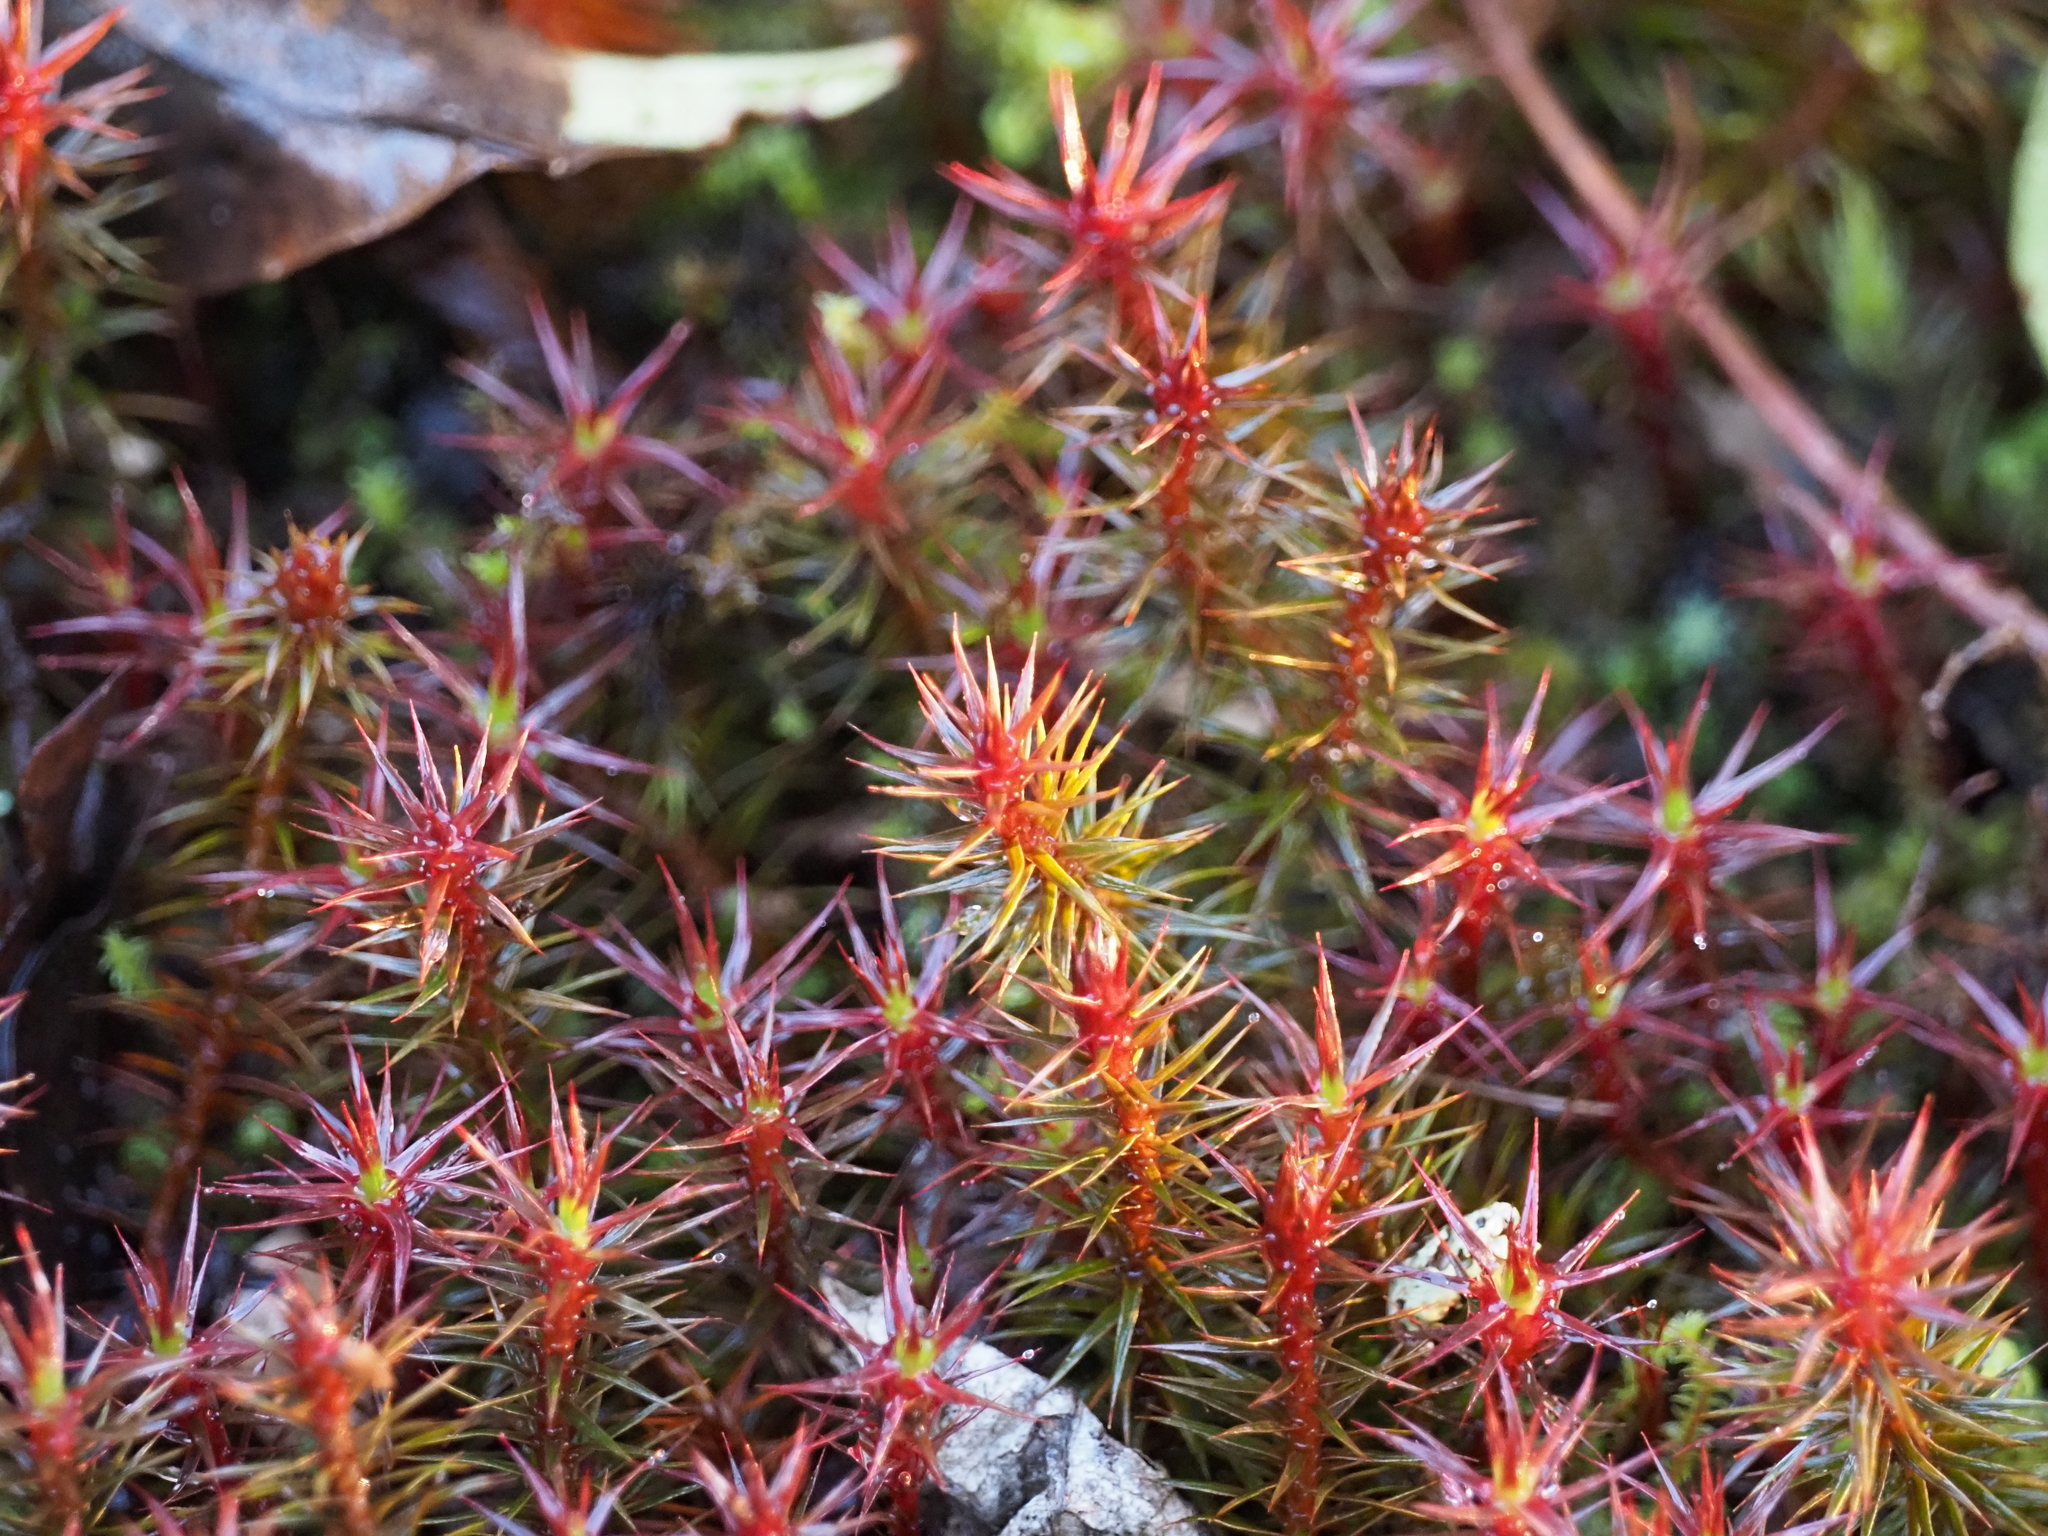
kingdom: Plantae
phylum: Bryophyta
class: Polytrichopsida
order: Polytrichales
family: Polytrichaceae
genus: Polytrichum
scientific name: Polytrichum juniperinum
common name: Juniper haircap moss
